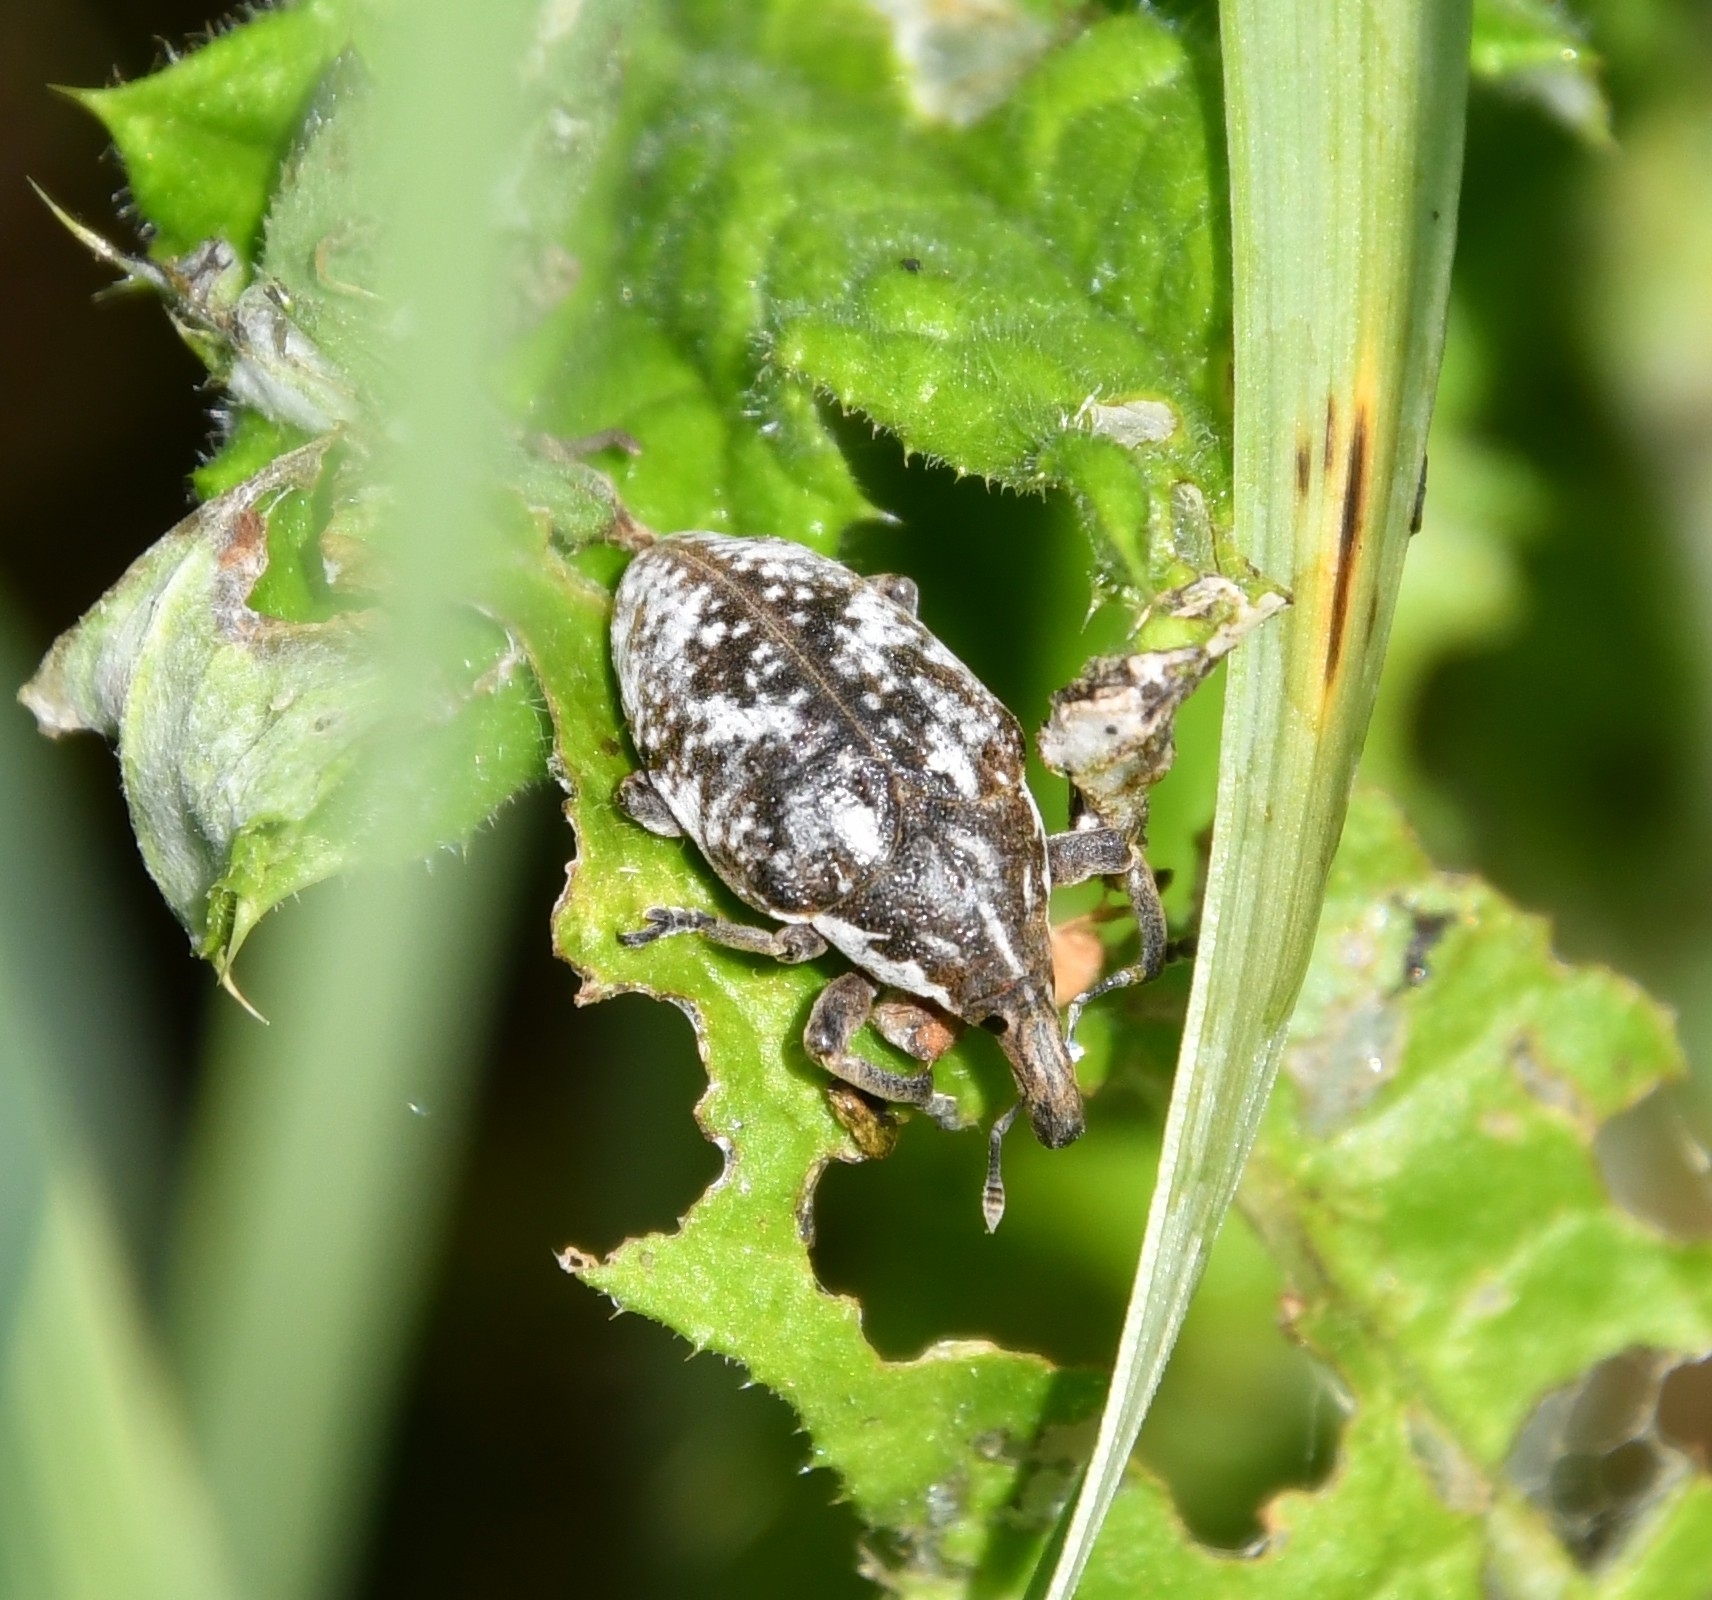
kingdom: Animalia
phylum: Arthropoda
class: Insecta
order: Coleoptera
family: Curculionidae
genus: Larinus
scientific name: Larinus vulpes
